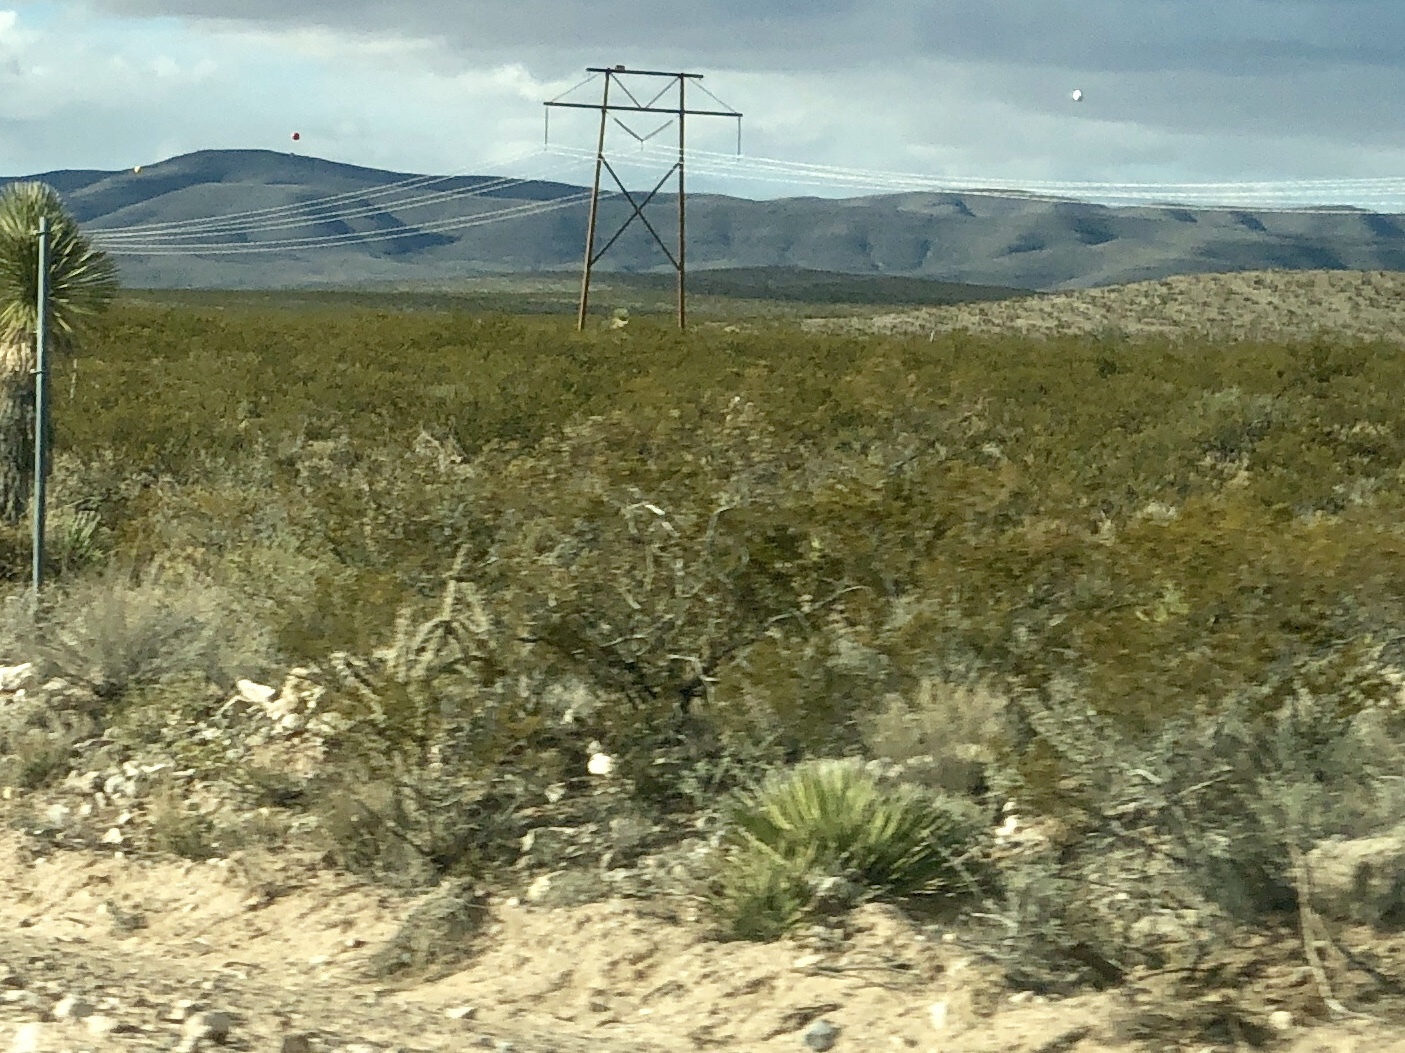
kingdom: Plantae
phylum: Tracheophyta
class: Magnoliopsida
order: Zygophyllales
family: Zygophyllaceae
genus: Larrea
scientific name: Larrea tridentata
